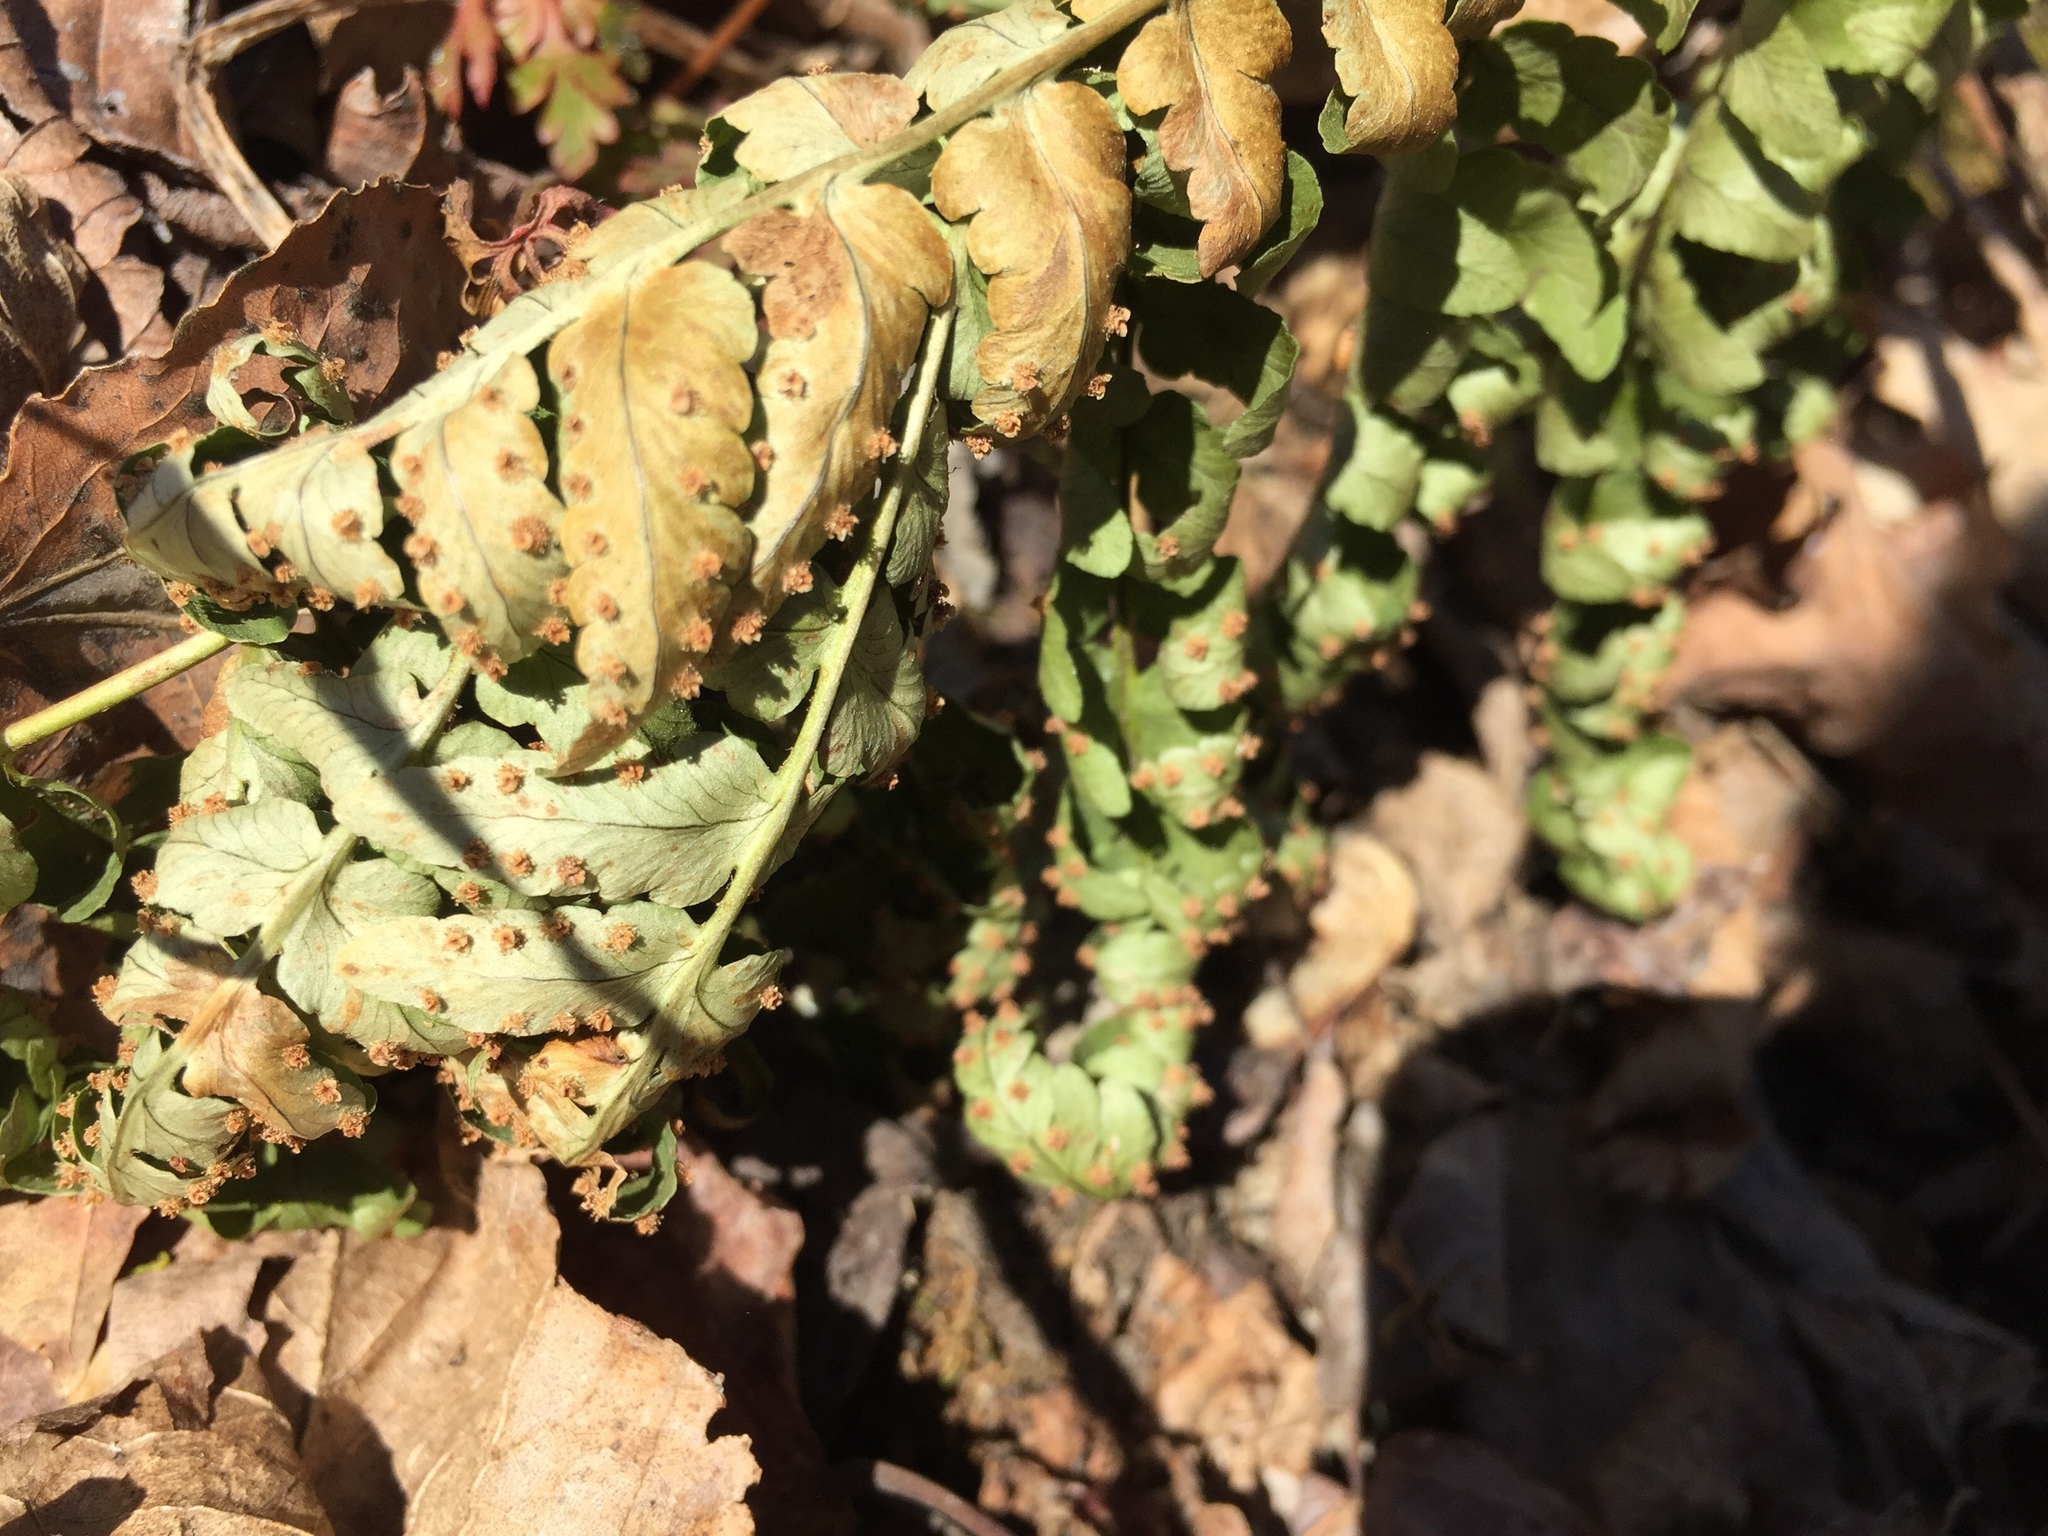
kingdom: Plantae
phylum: Tracheophyta
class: Polypodiopsida
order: Polypodiales
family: Dryopteridaceae
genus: Dryopteris
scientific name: Dryopteris marginalis
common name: Marginal wood fern
